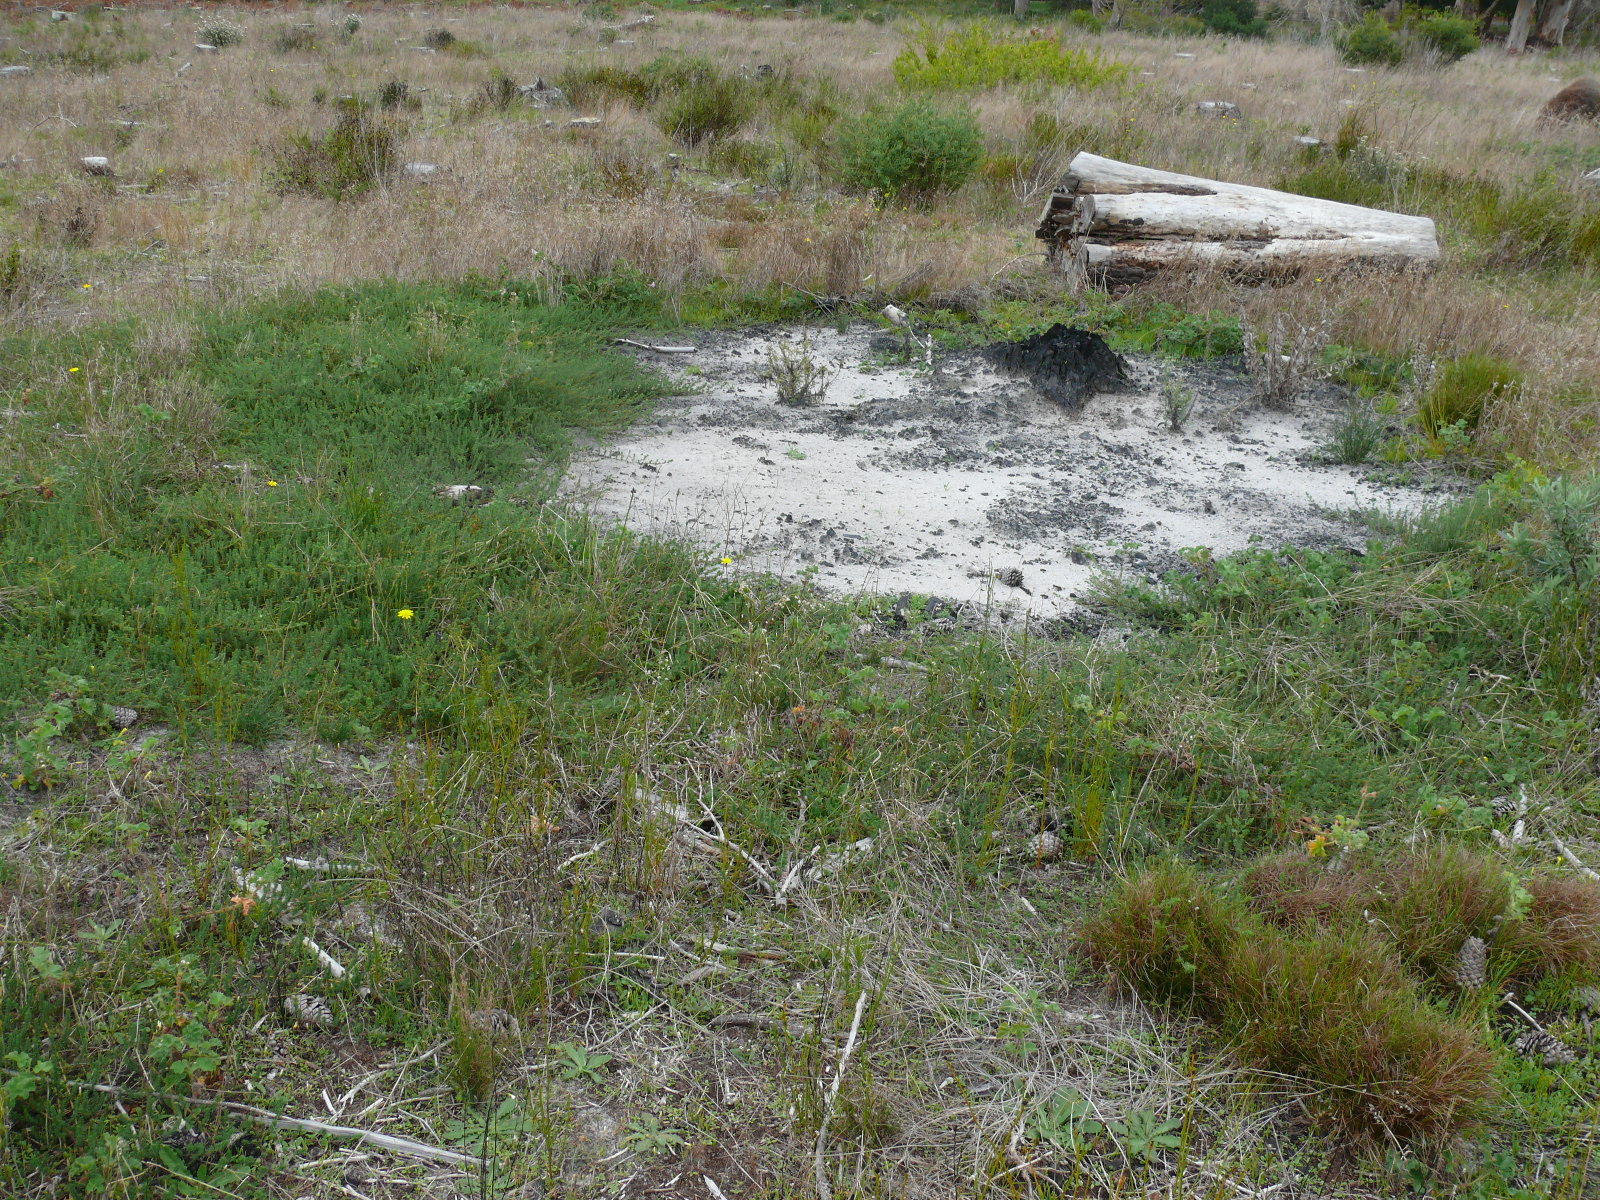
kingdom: Plantae
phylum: Tracheophyta
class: Magnoliopsida
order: Fabales
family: Fabaceae
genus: Aspalathus
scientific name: Aspalathus retroflexa
